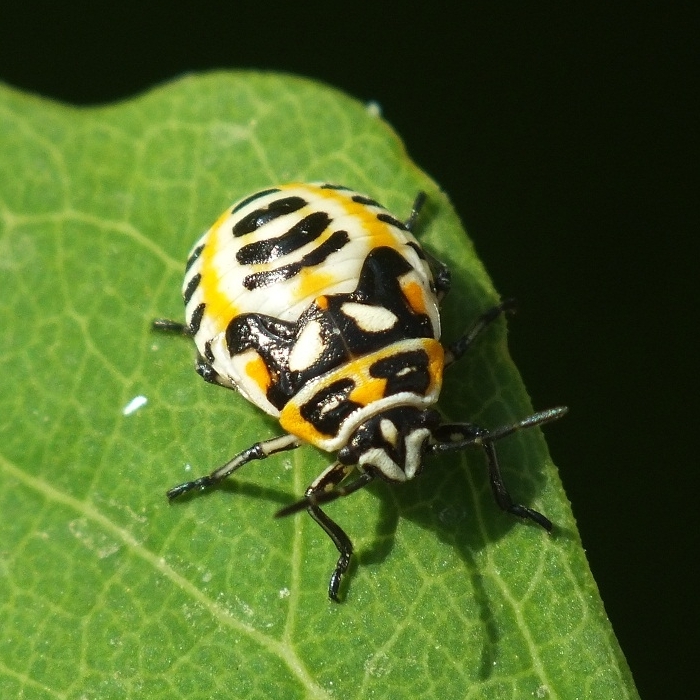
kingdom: Animalia
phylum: Arthropoda
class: Insecta
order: Hemiptera
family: Pentatomidae
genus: Eurydema
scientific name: Eurydema ornata
